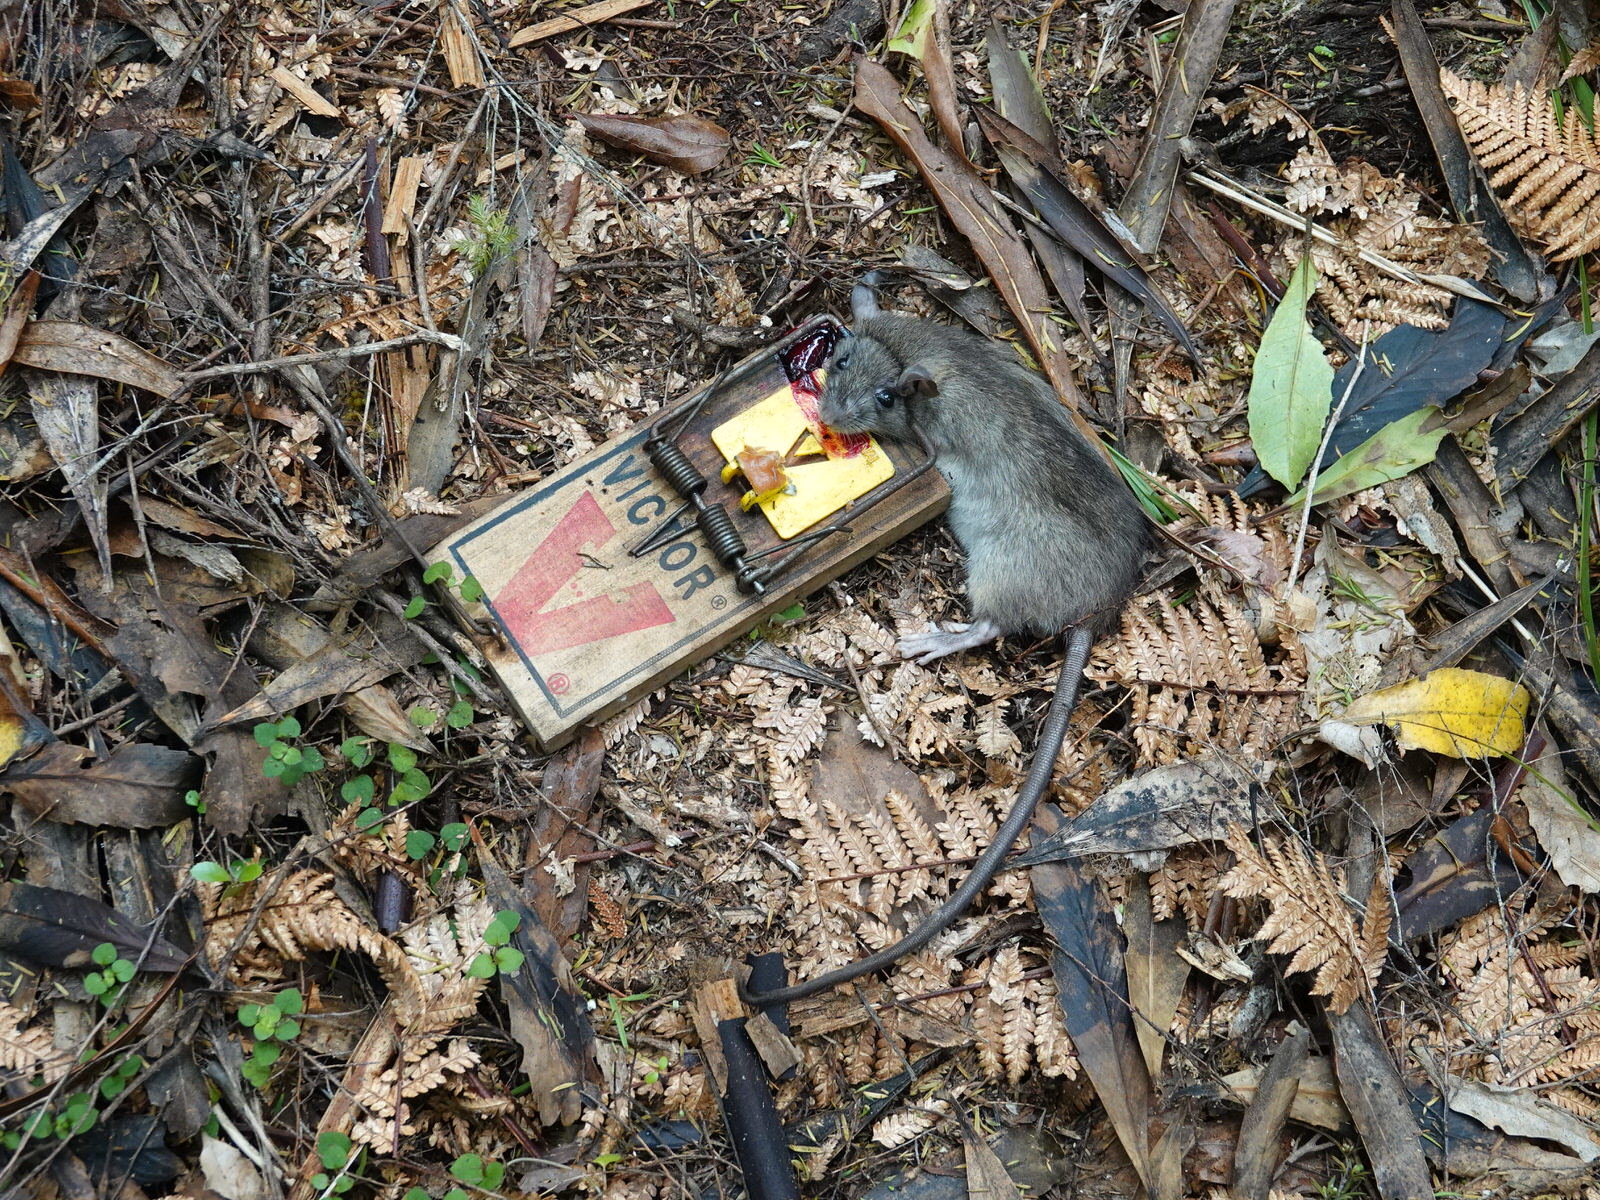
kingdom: Animalia
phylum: Chordata
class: Mammalia
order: Rodentia
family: Muridae
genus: Rattus
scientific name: Rattus rattus
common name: Black rat
